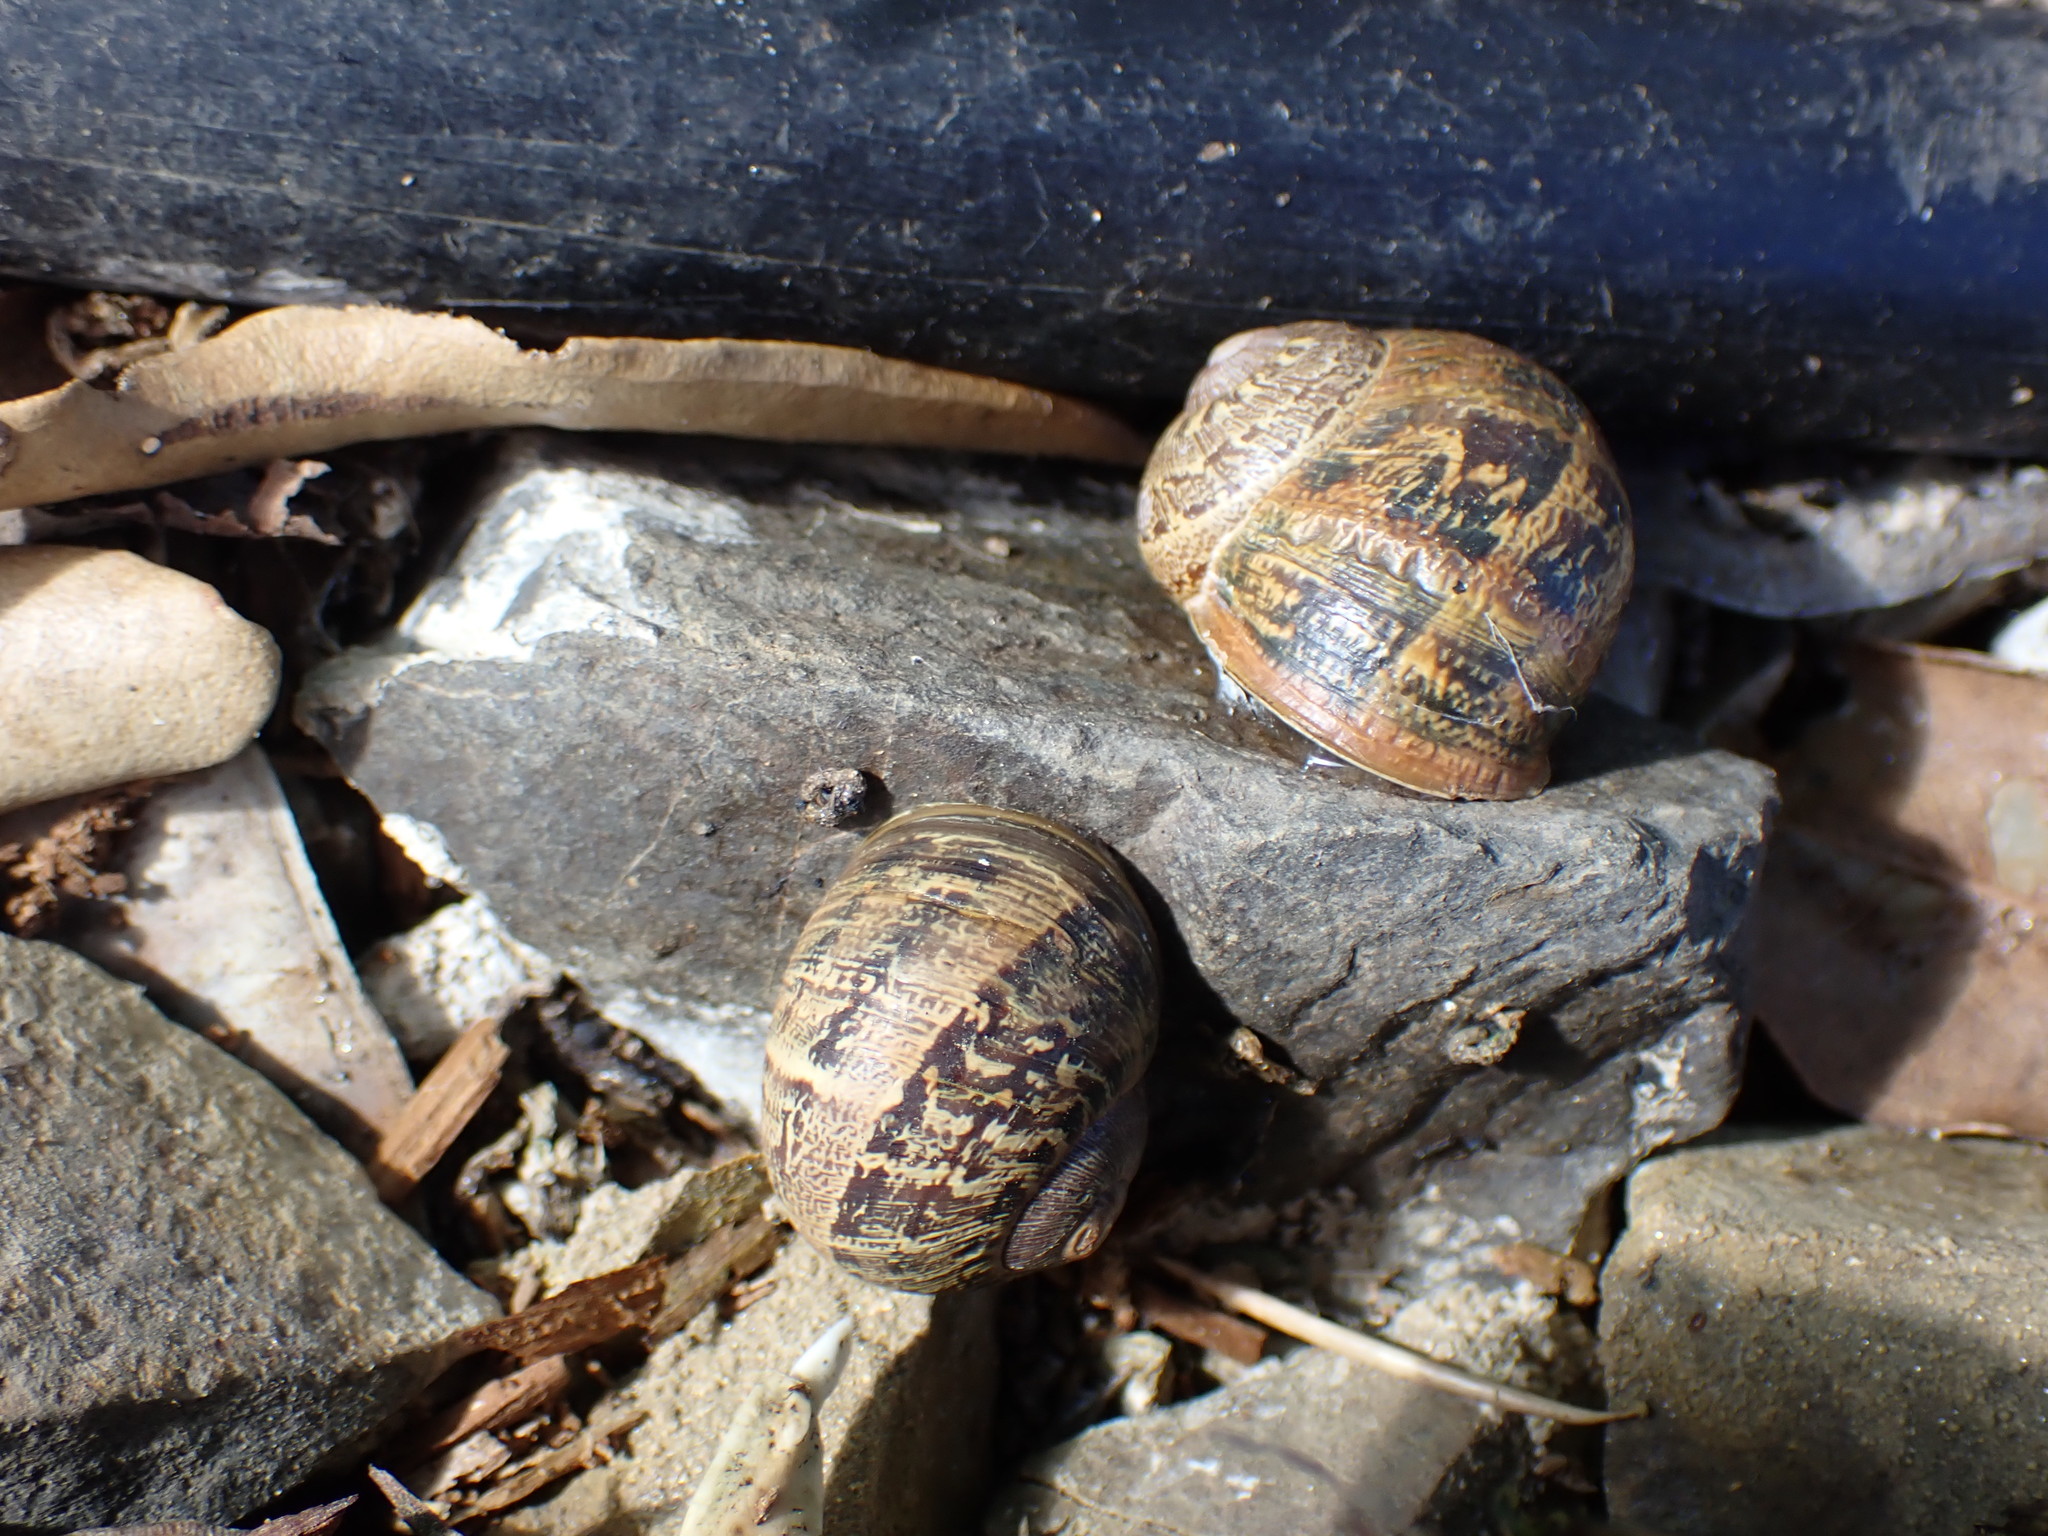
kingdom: Animalia
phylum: Mollusca
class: Gastropoda
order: Stylommatophora
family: Helicidae
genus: Cornu
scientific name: Cornu aspersum
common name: Brown garden snail
